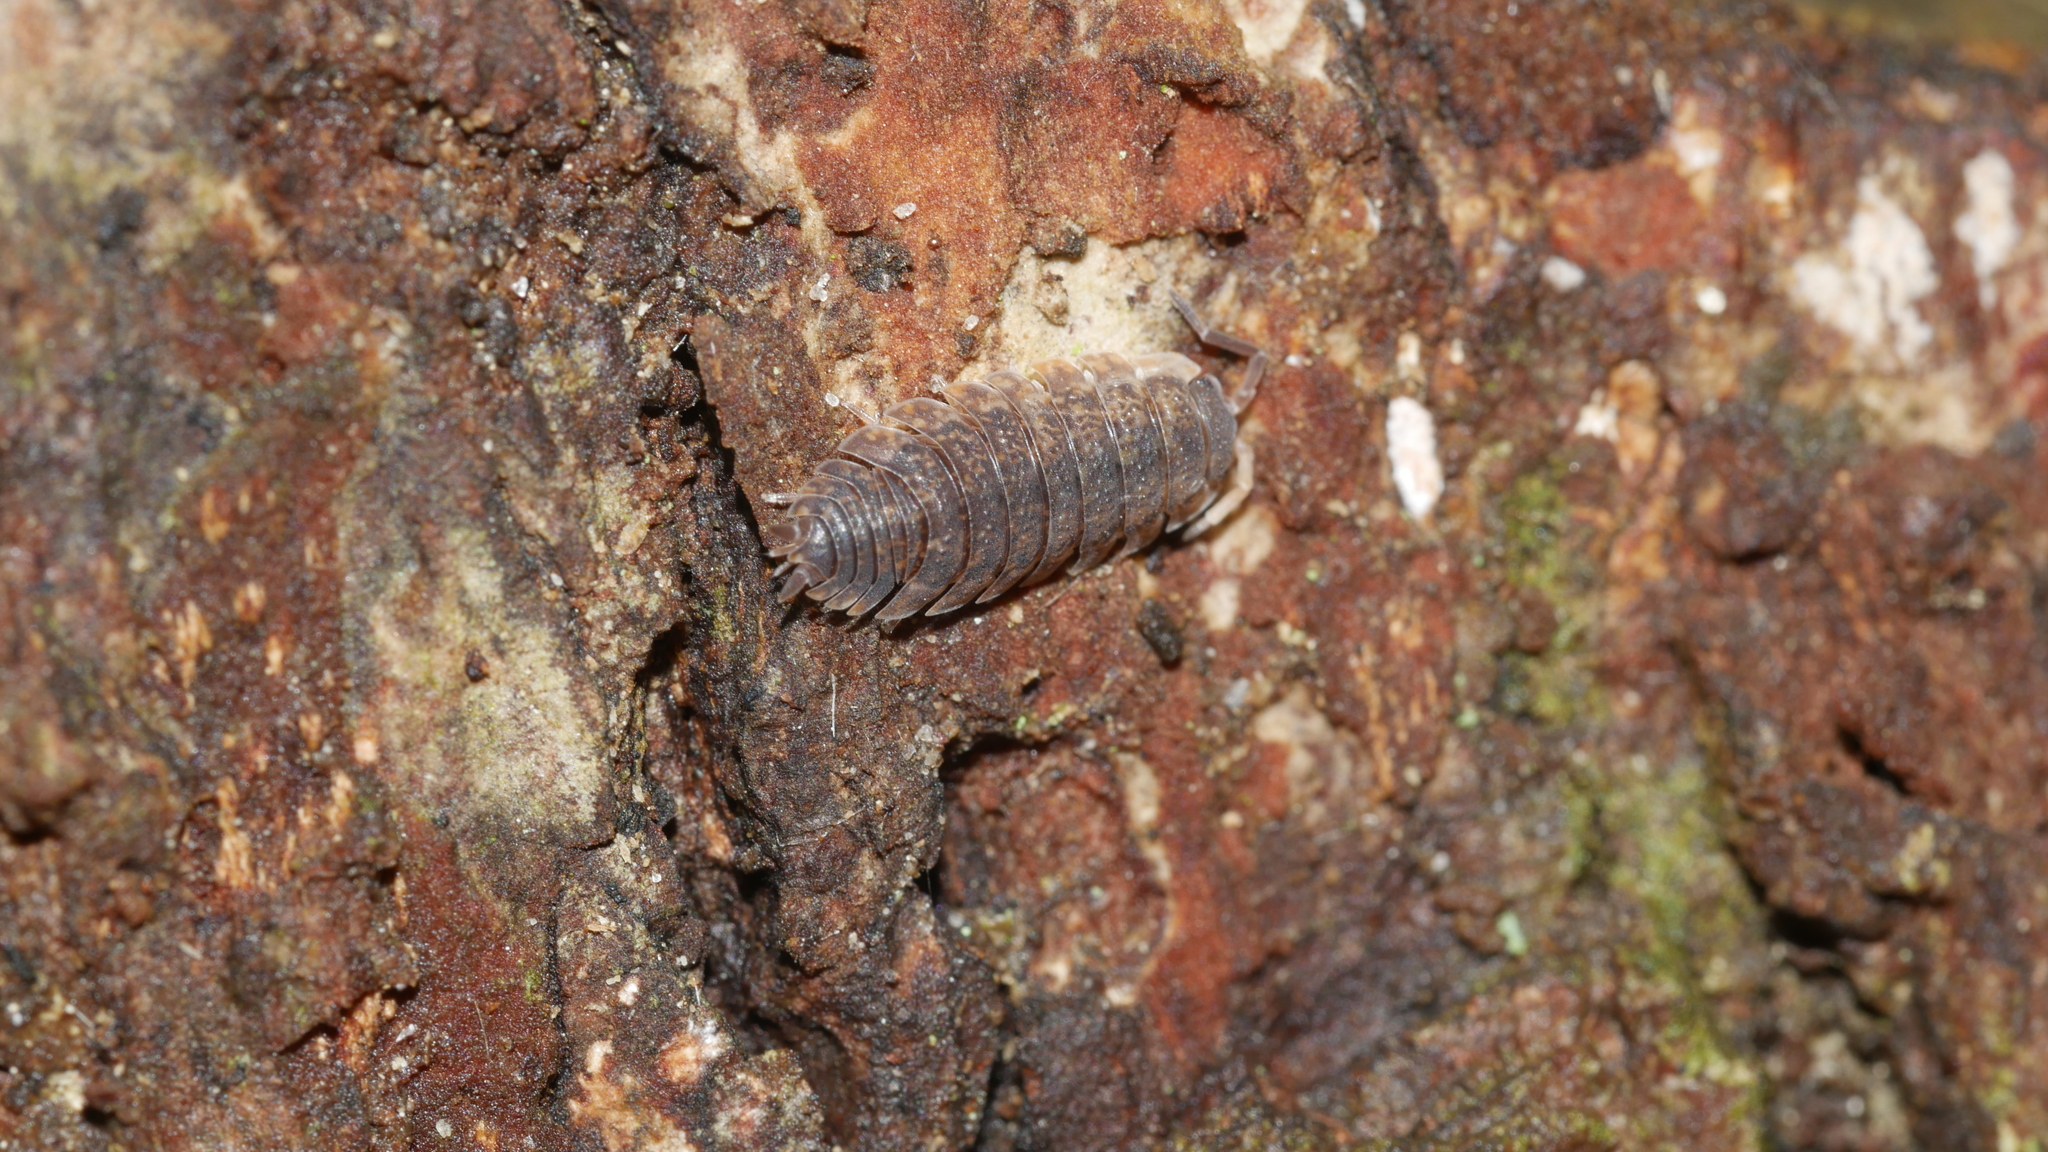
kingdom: Animalia
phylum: Arthropoda
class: Malacostraca
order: Isopoda
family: Porcellionidae
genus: Porcellio
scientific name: Porcellio scaber
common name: Common rough woodlouse
